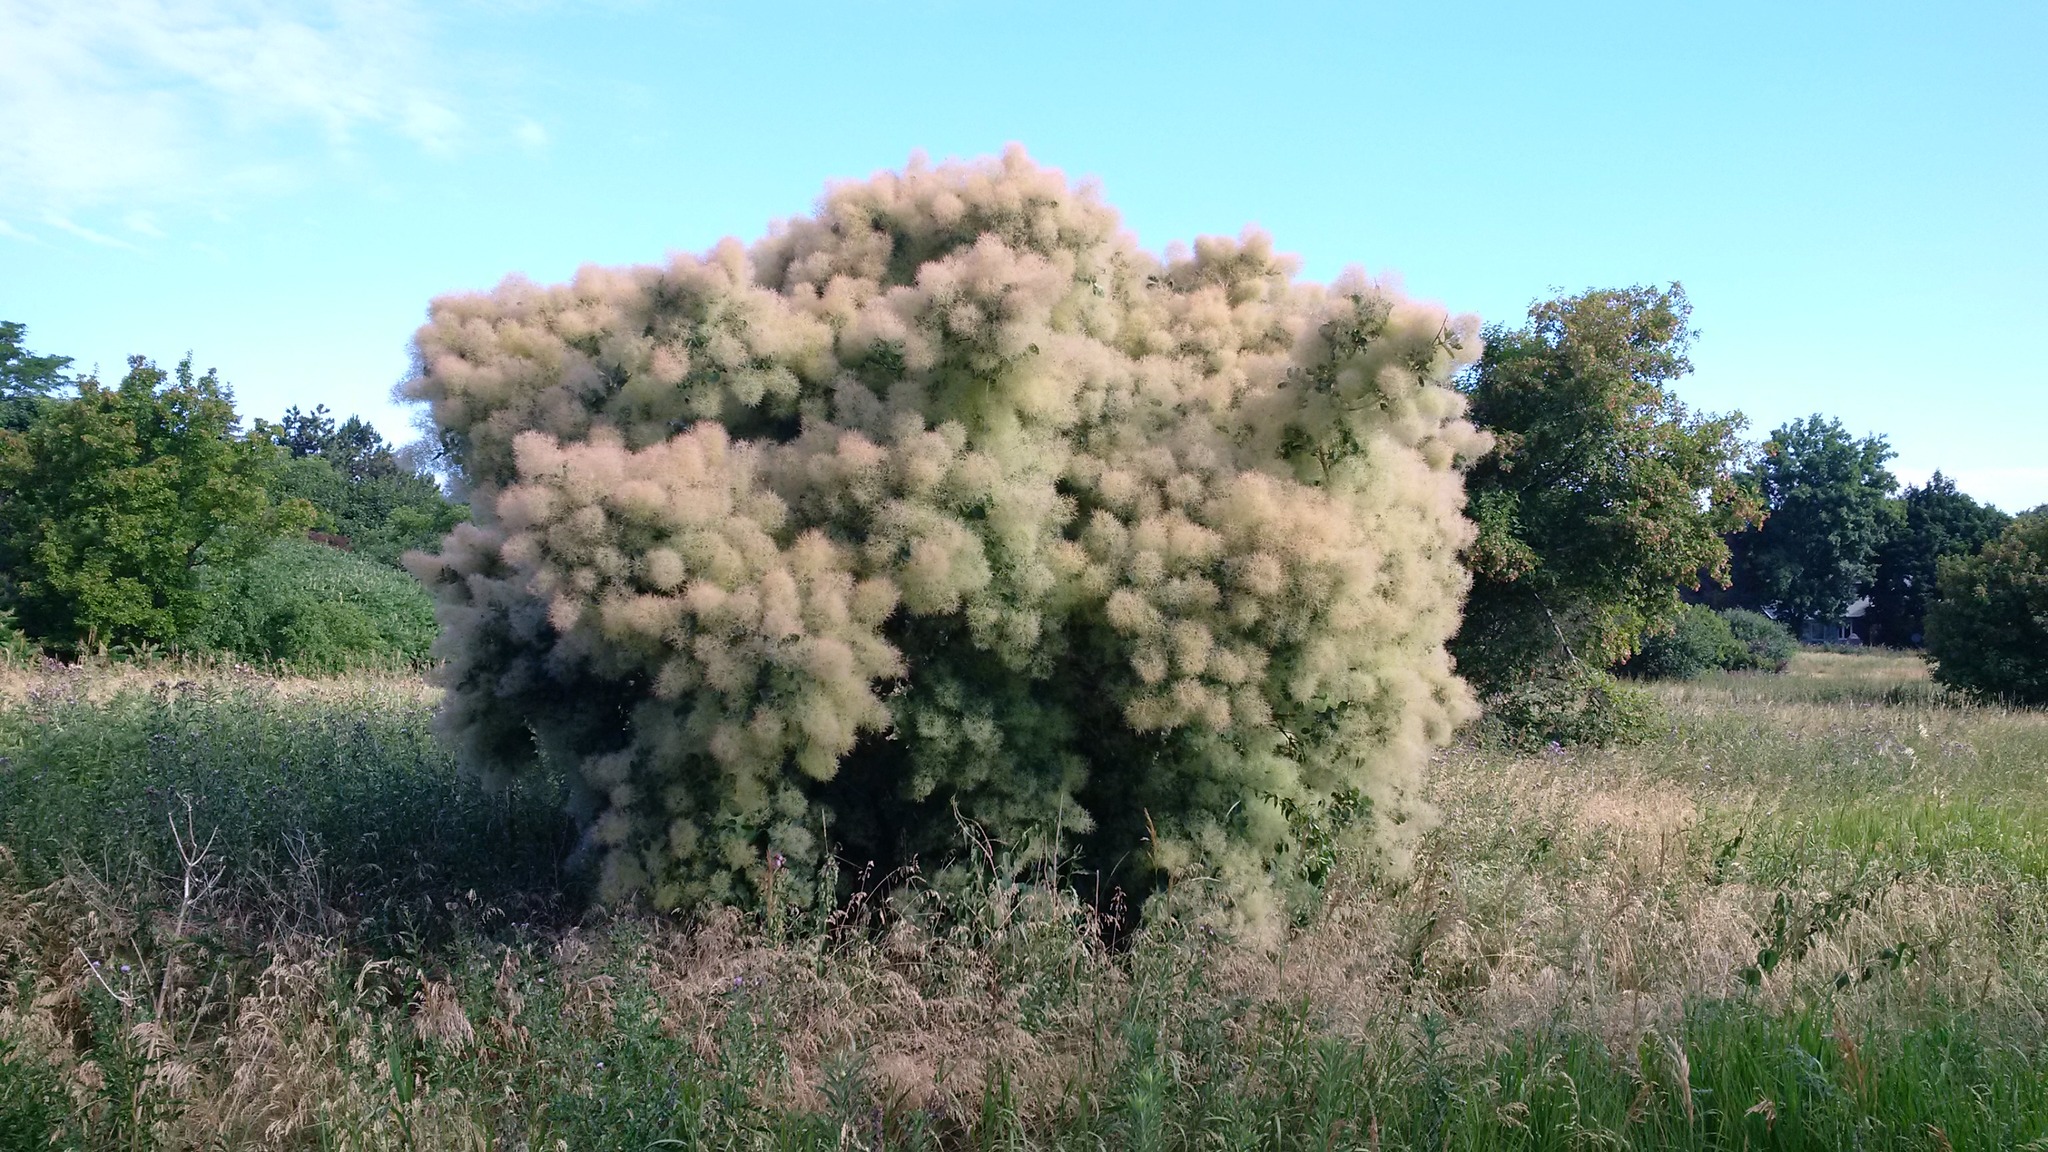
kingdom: Plantae
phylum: Tracheophyta
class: Magnoliopsida
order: Sapindales
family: Anacardiaceae
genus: Cotinus
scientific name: Cotinus coggygria
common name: Smoke-tree
